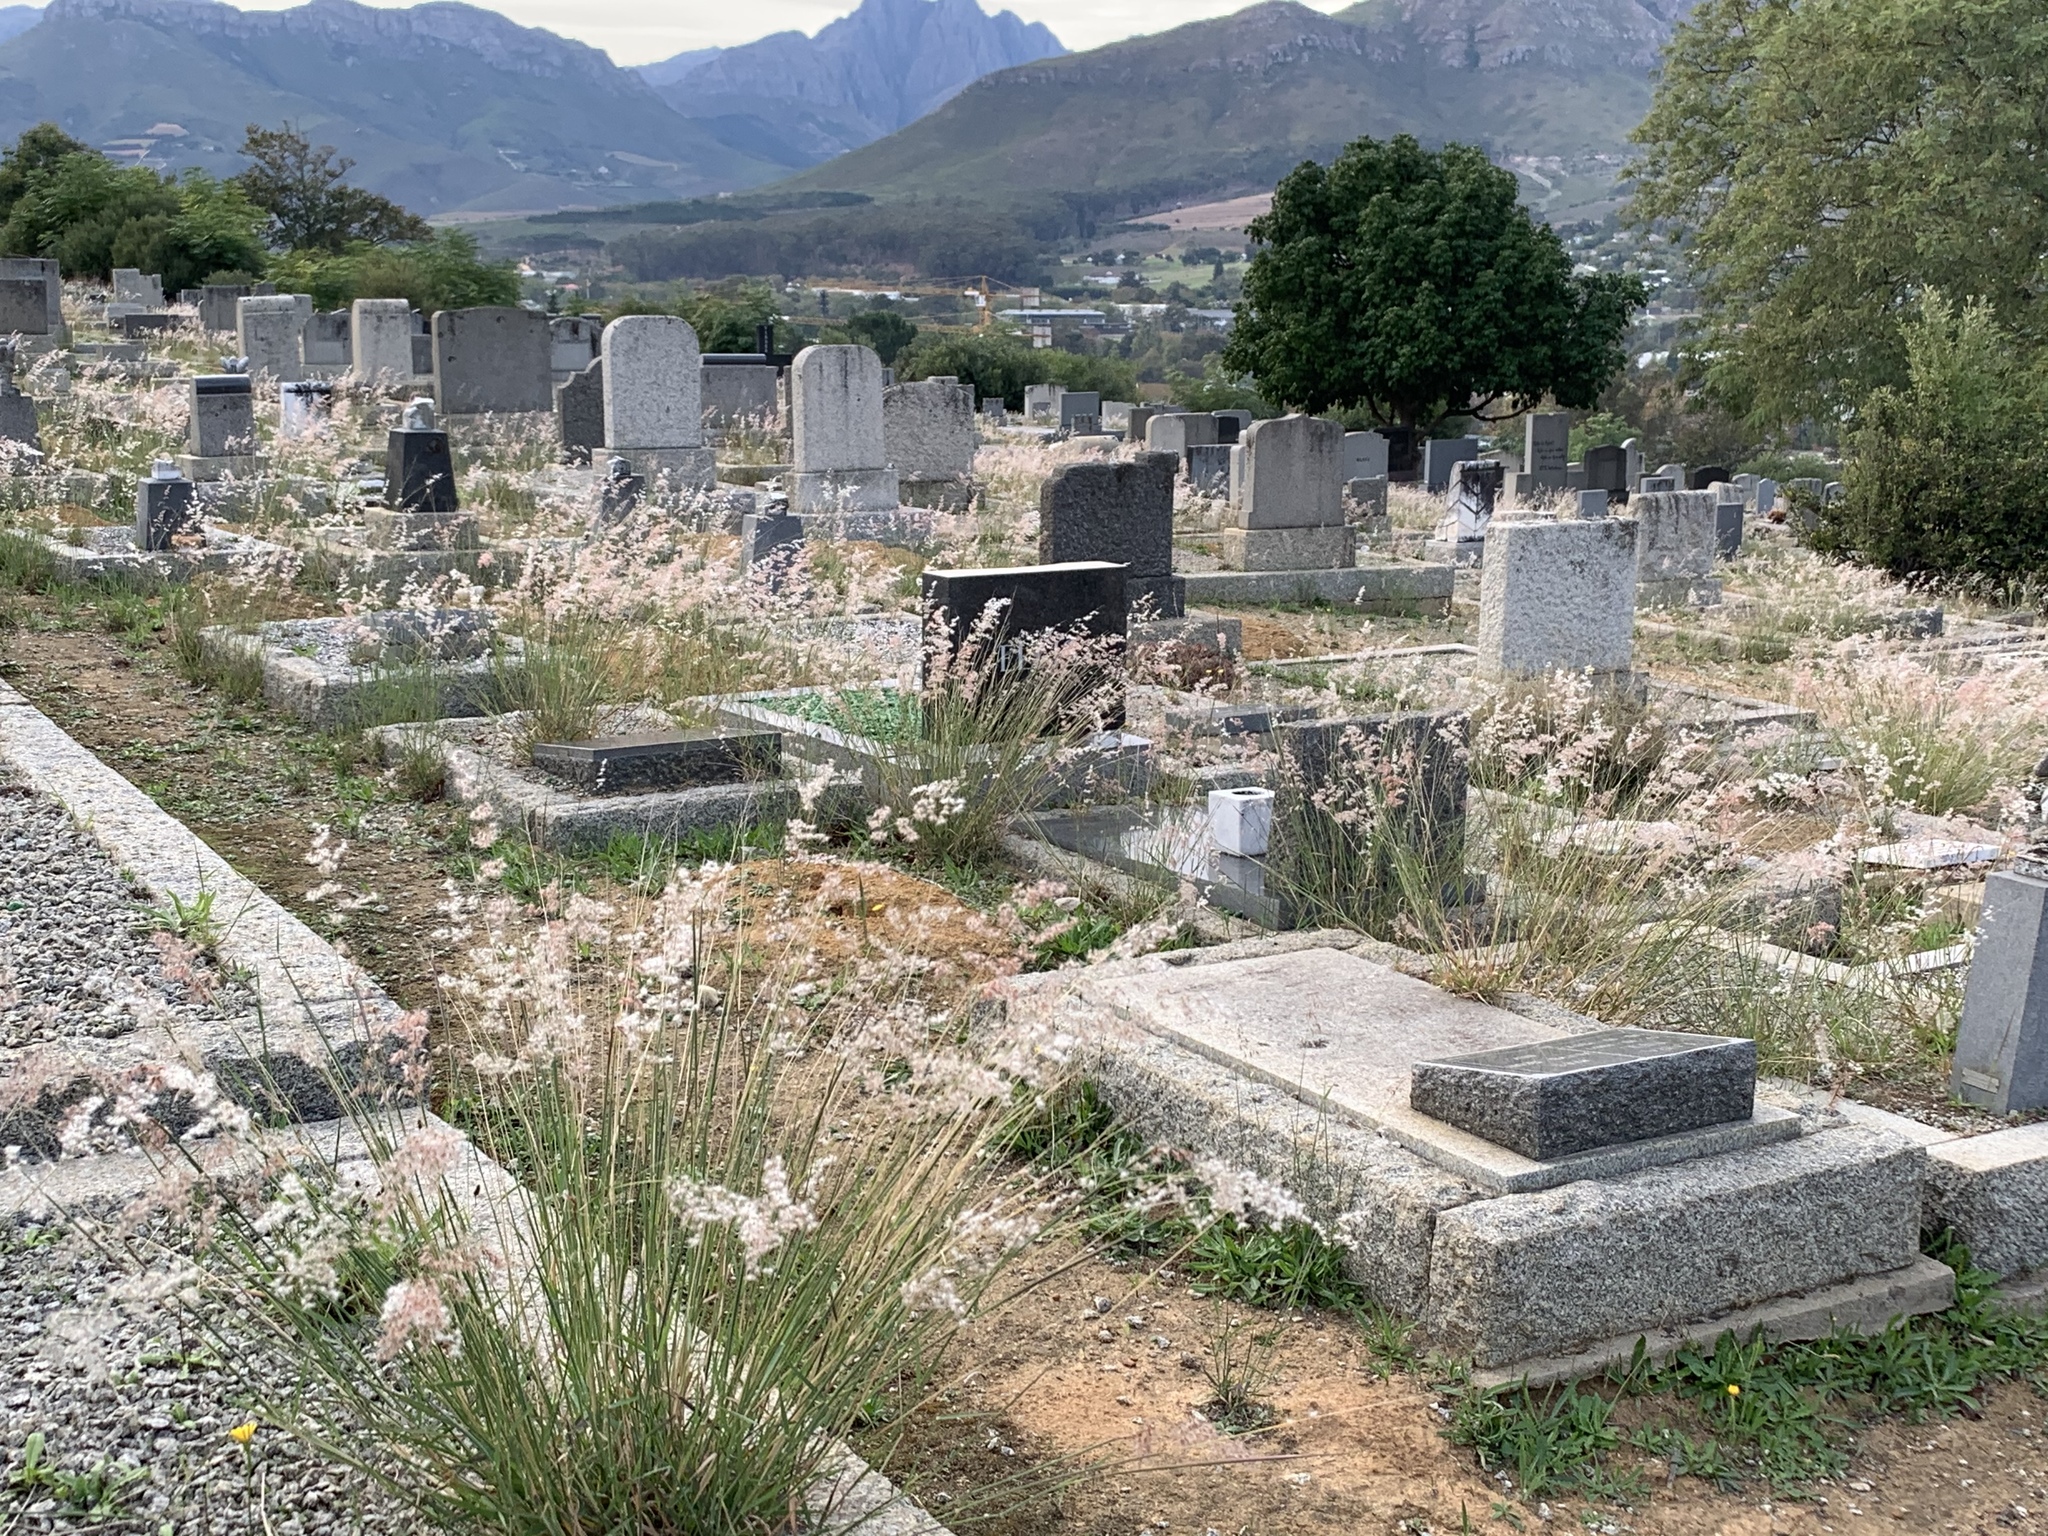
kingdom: Plantae
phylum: Tracheophyta
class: Liliopsida
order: Poales
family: Poaceae
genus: Melinis
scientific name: Melinis repens
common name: Rose natal grass
